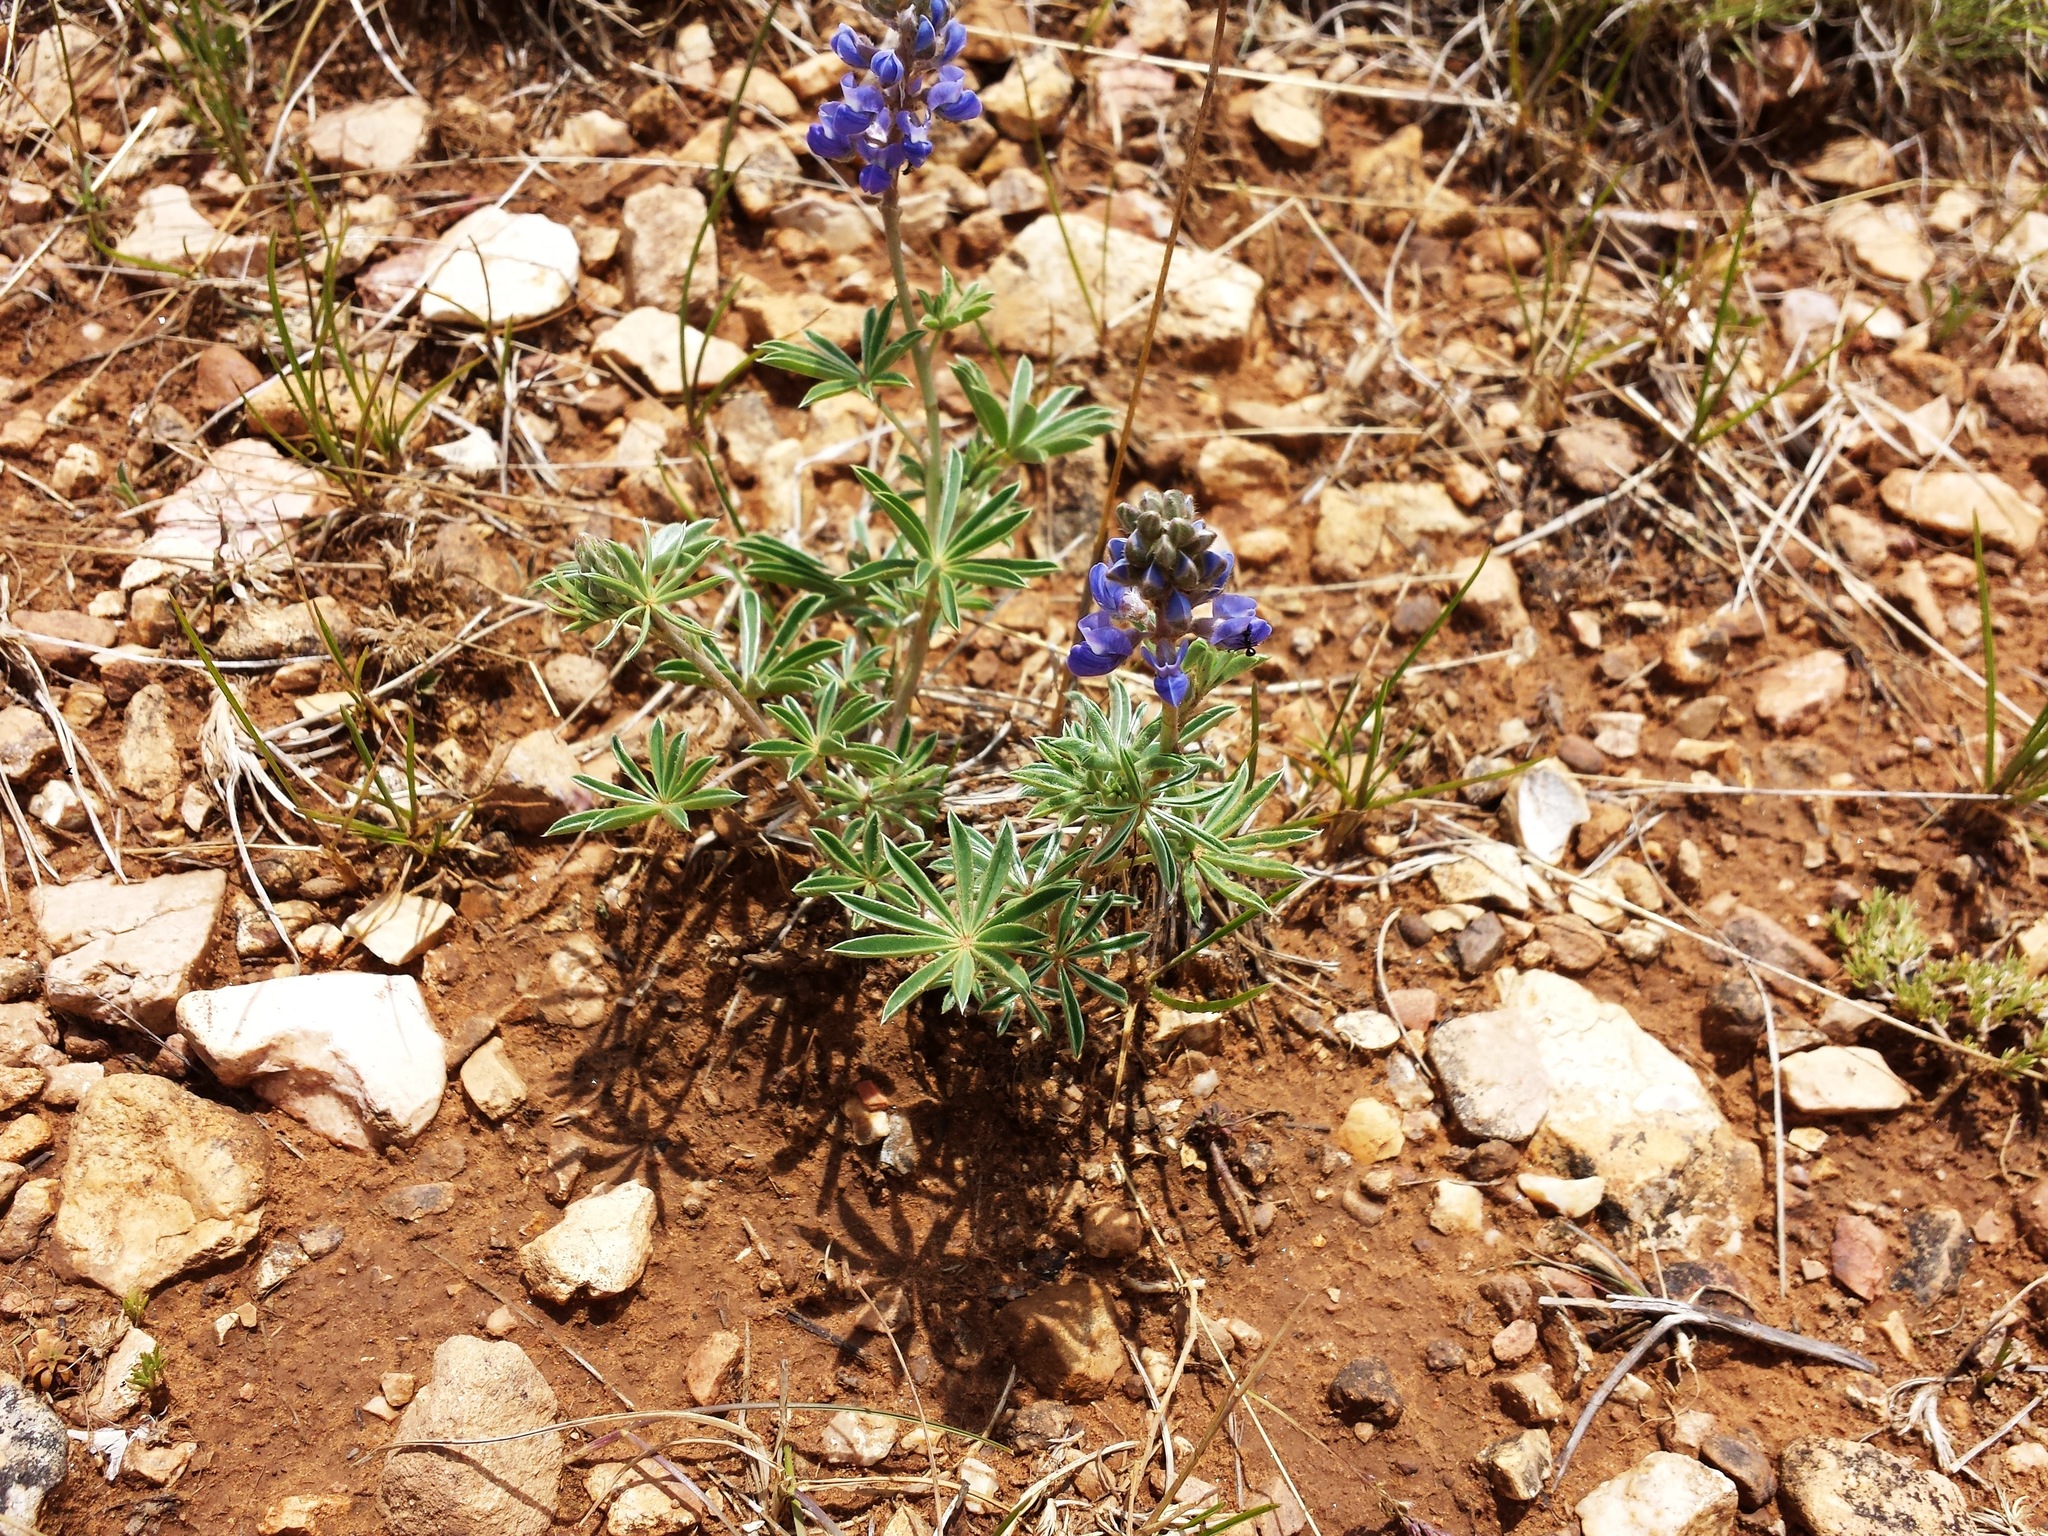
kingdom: Plantae
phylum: Tracheophyta
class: Magnoliopsida
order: Fabales
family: Fabaceae
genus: Lupinus
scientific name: Lupinus hillii
